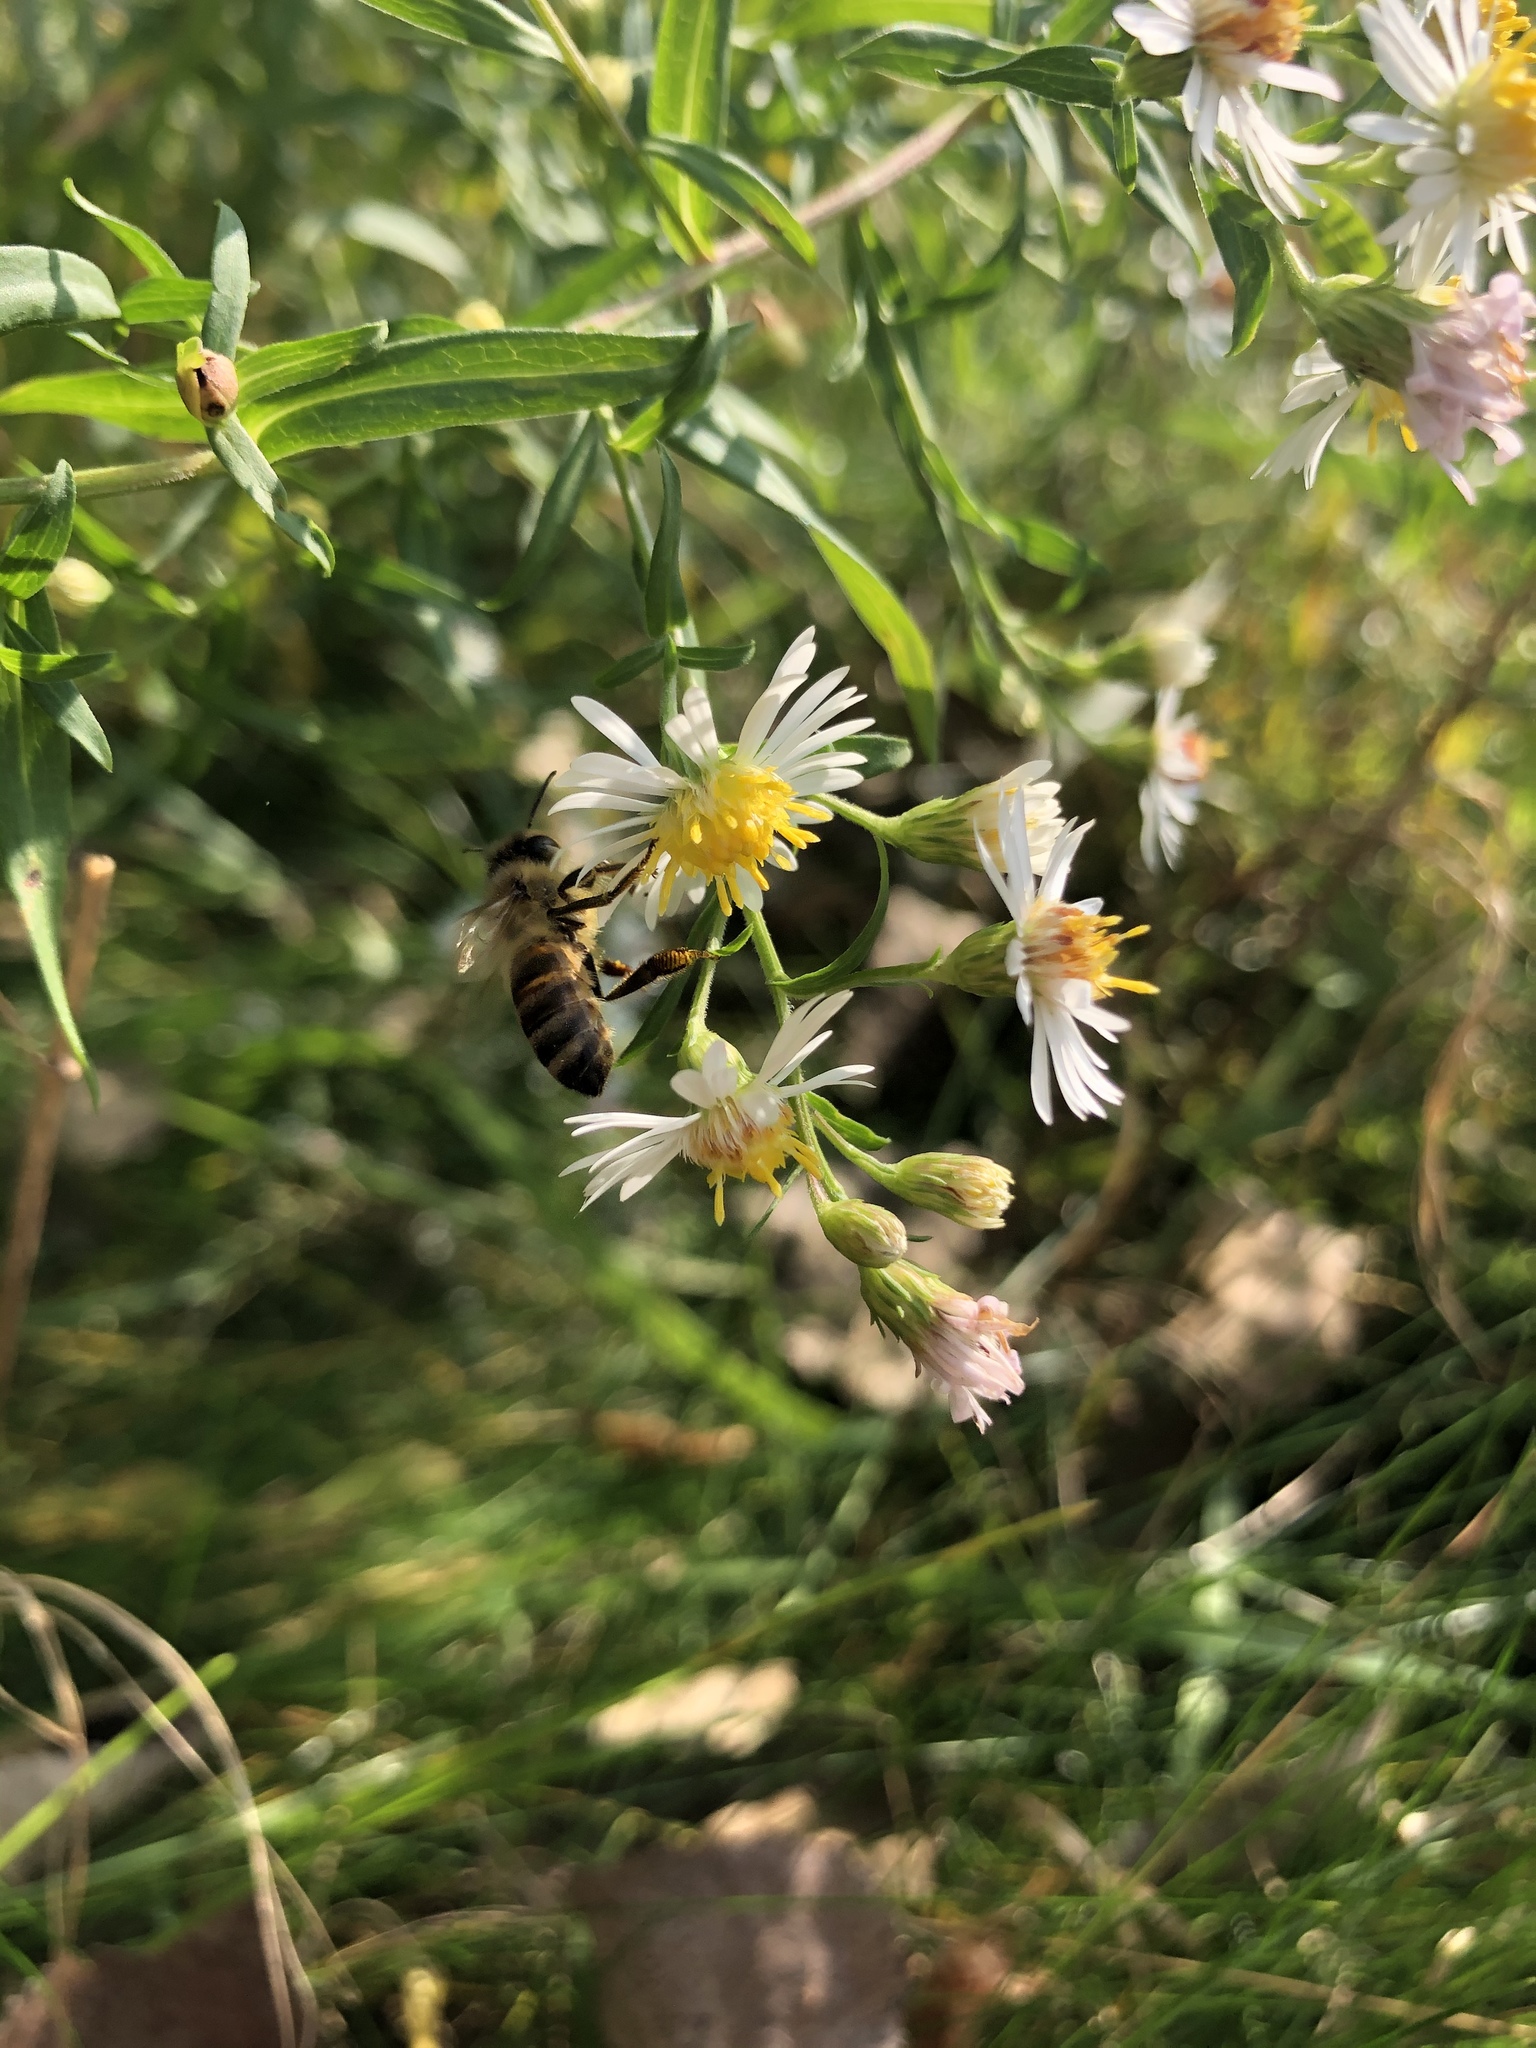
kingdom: Animalia
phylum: Arthropoda
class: Insecta
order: Hymenoptera
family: Apidae
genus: Apis
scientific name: Apis mellifera
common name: Honey bee
